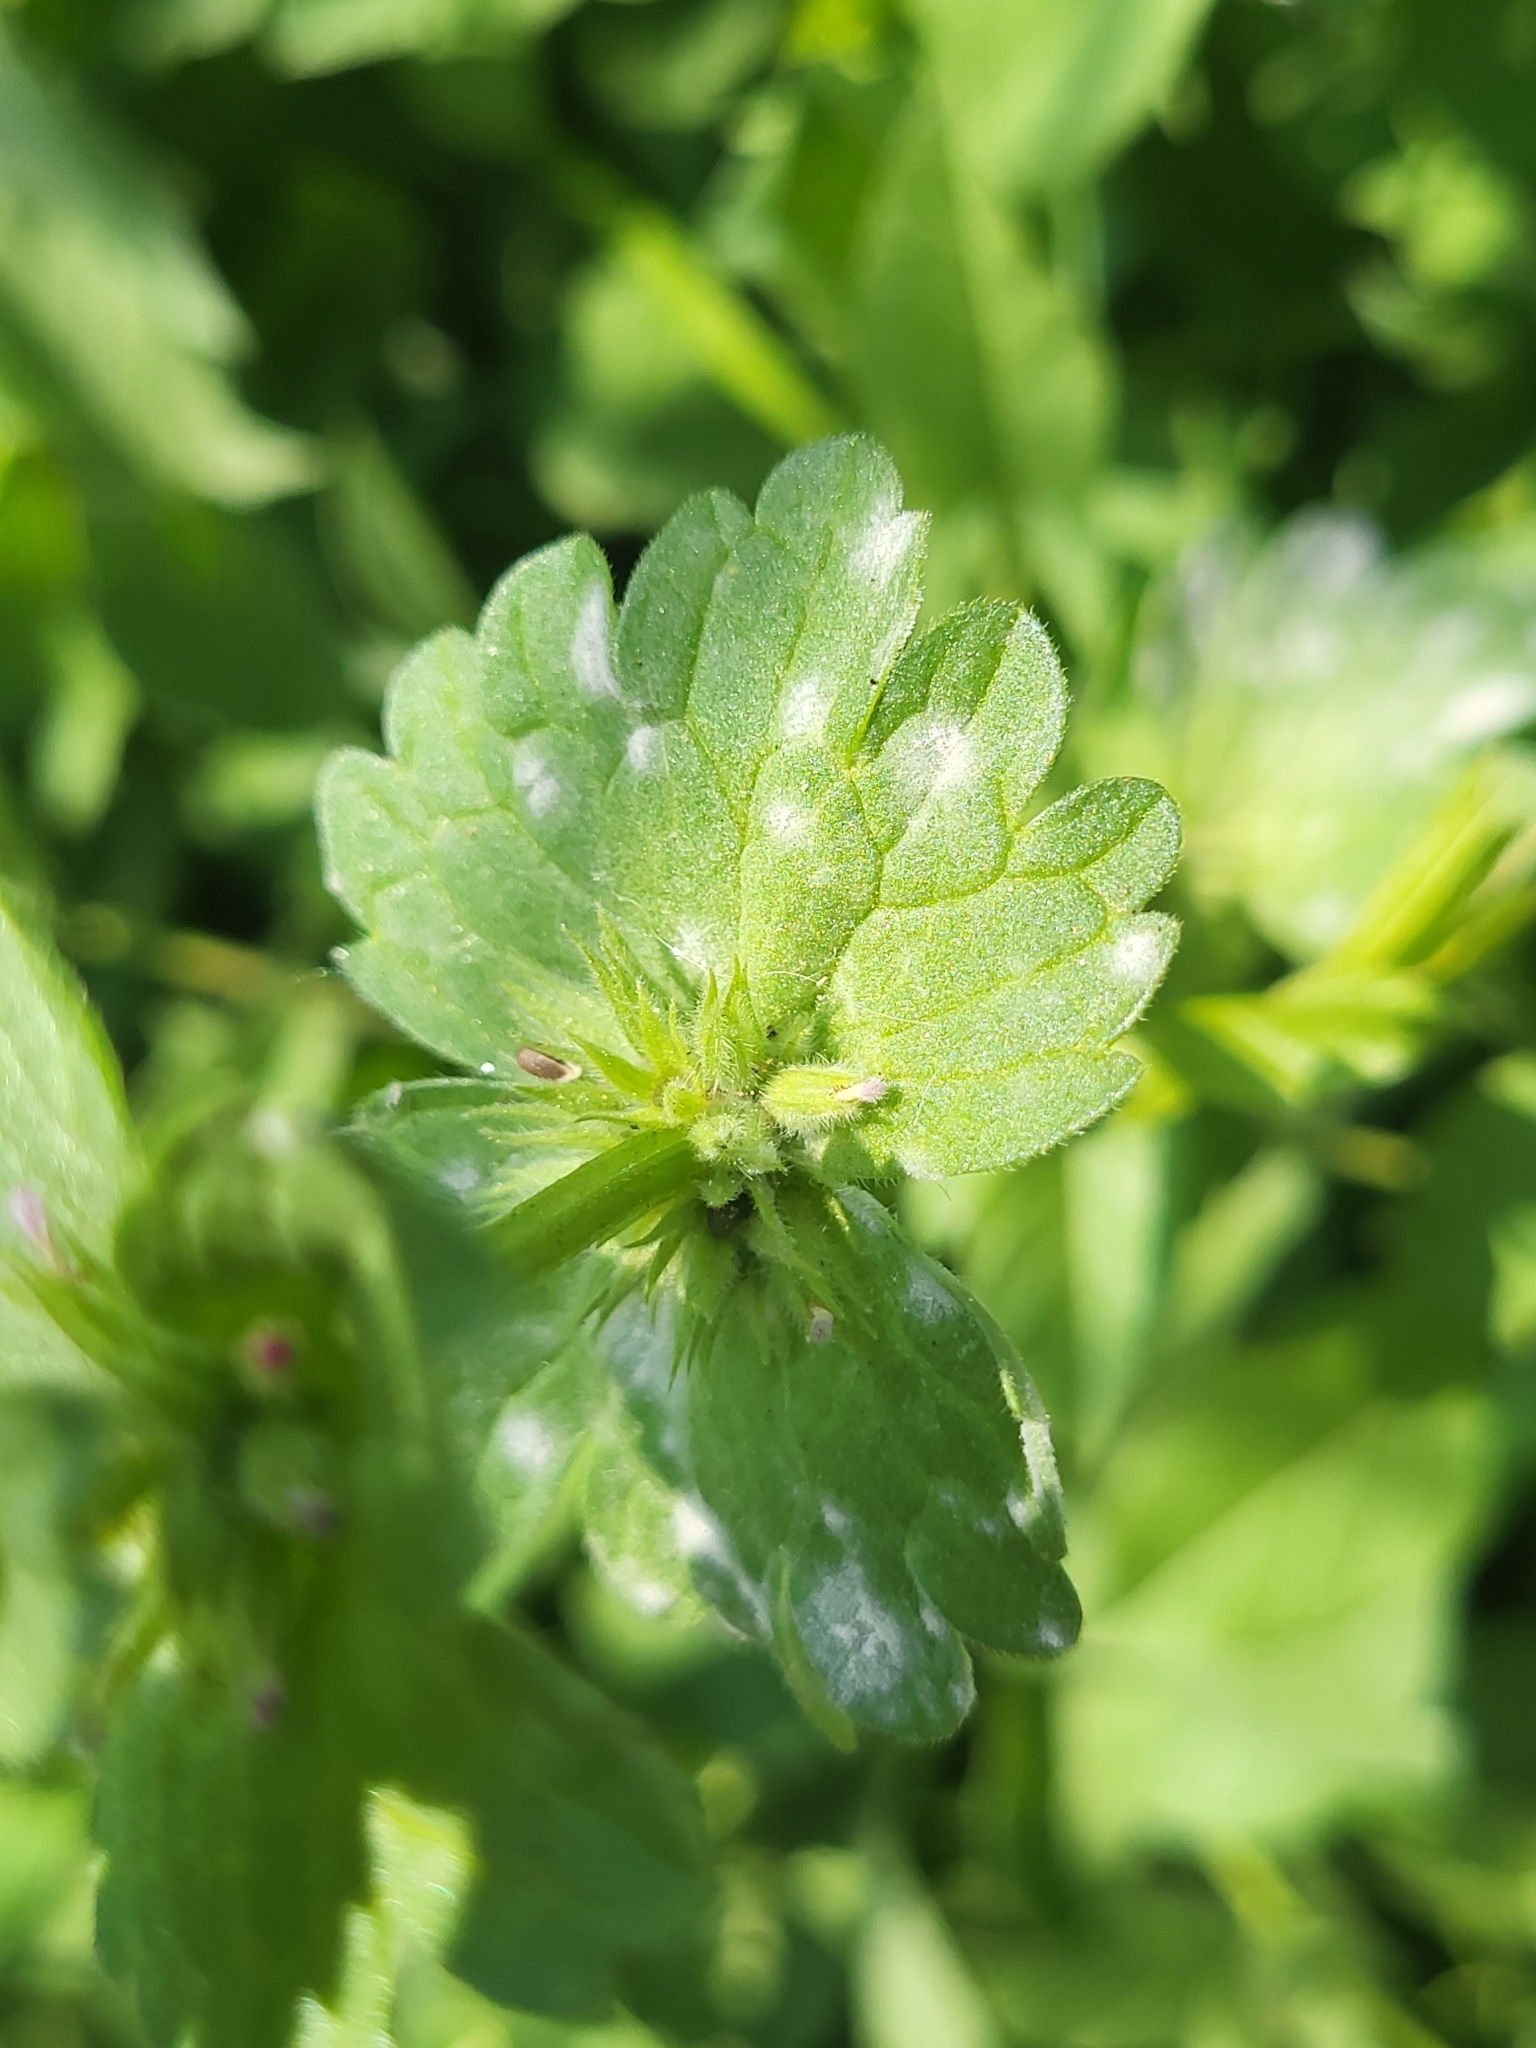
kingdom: Fungi
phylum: Ascomycota
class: Leotiomycetes
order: Helotiales
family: Erysiphaceae
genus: Neoerysiphe
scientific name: Neoerysiphe galeopsidis
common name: Mint mildew
